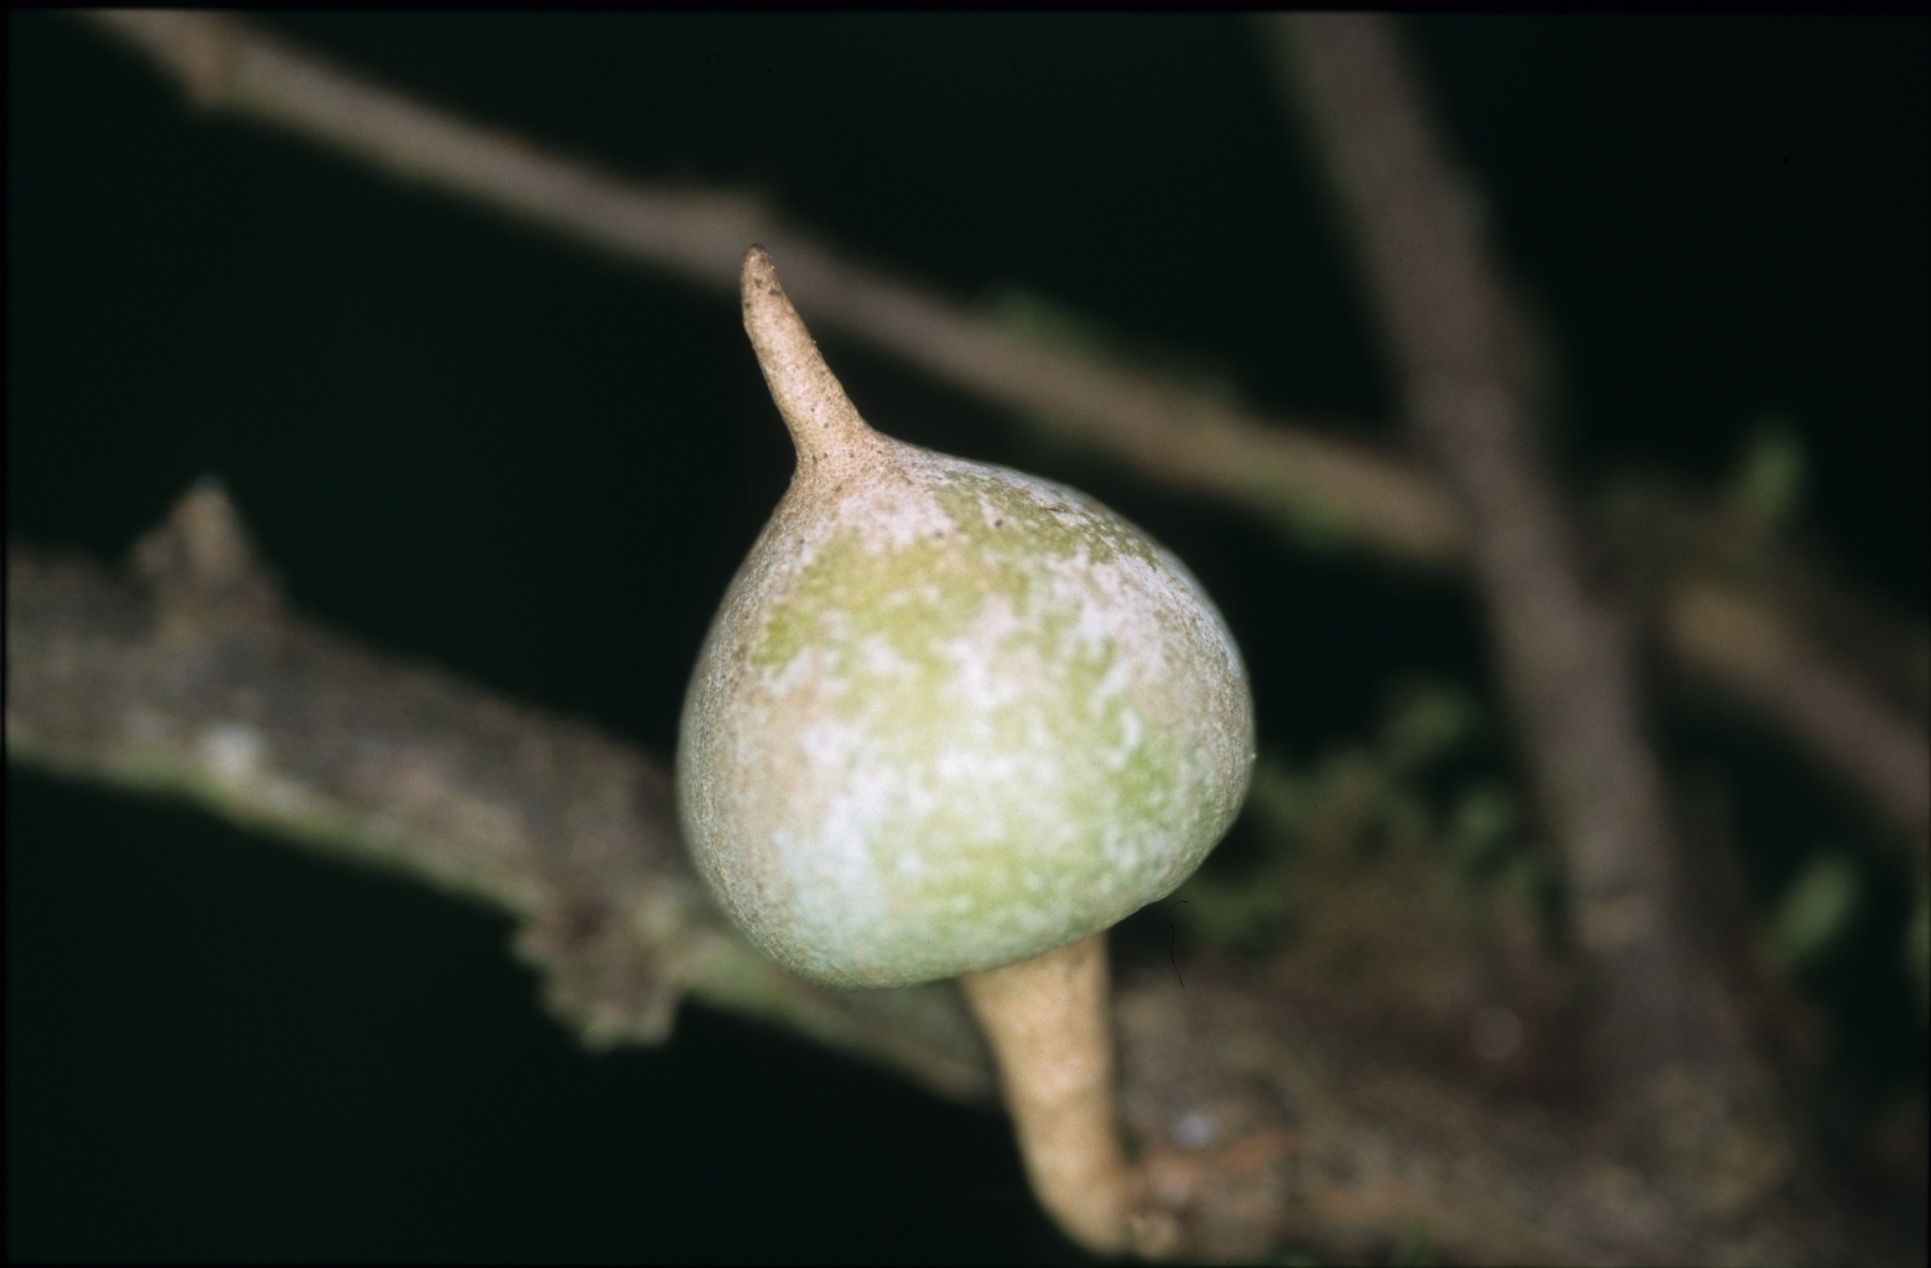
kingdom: Plantae
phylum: Tracheophyta
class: Magnoliopsida
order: Magnoliales
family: Annonaceae
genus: Duguetia
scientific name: Duguetia spixiana
